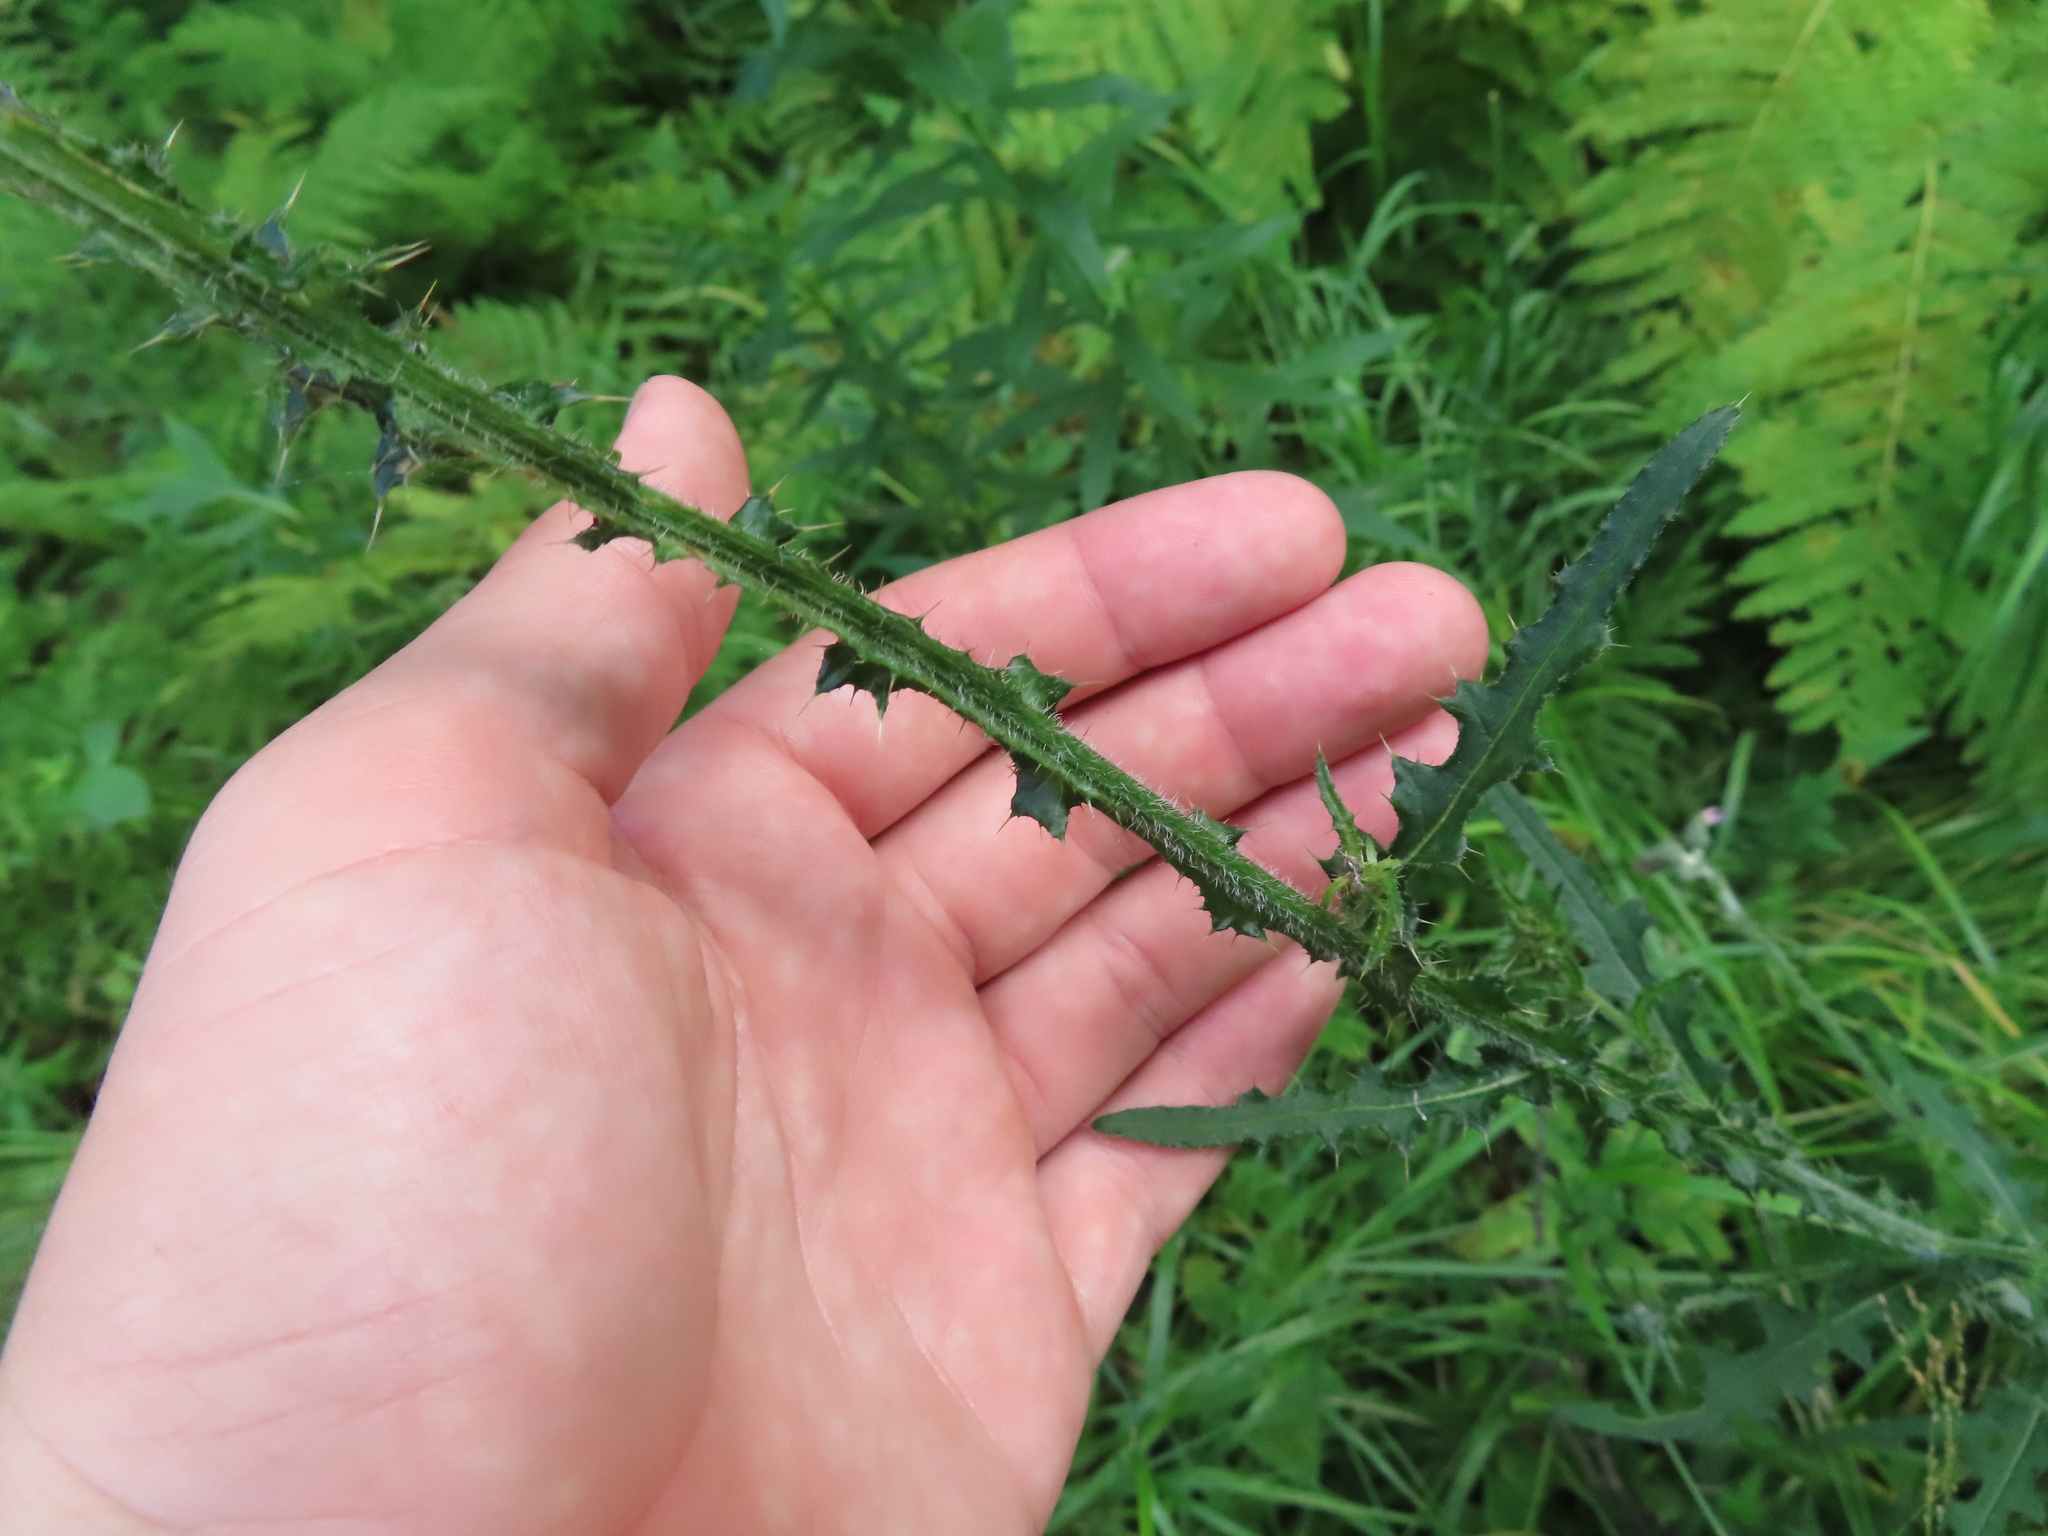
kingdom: Plantae
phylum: Tracheophyta
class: Magnoliopsida
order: Asterales
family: Asteraceae
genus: Cirsium
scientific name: Cirsium palustre
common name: Marsh thistle
